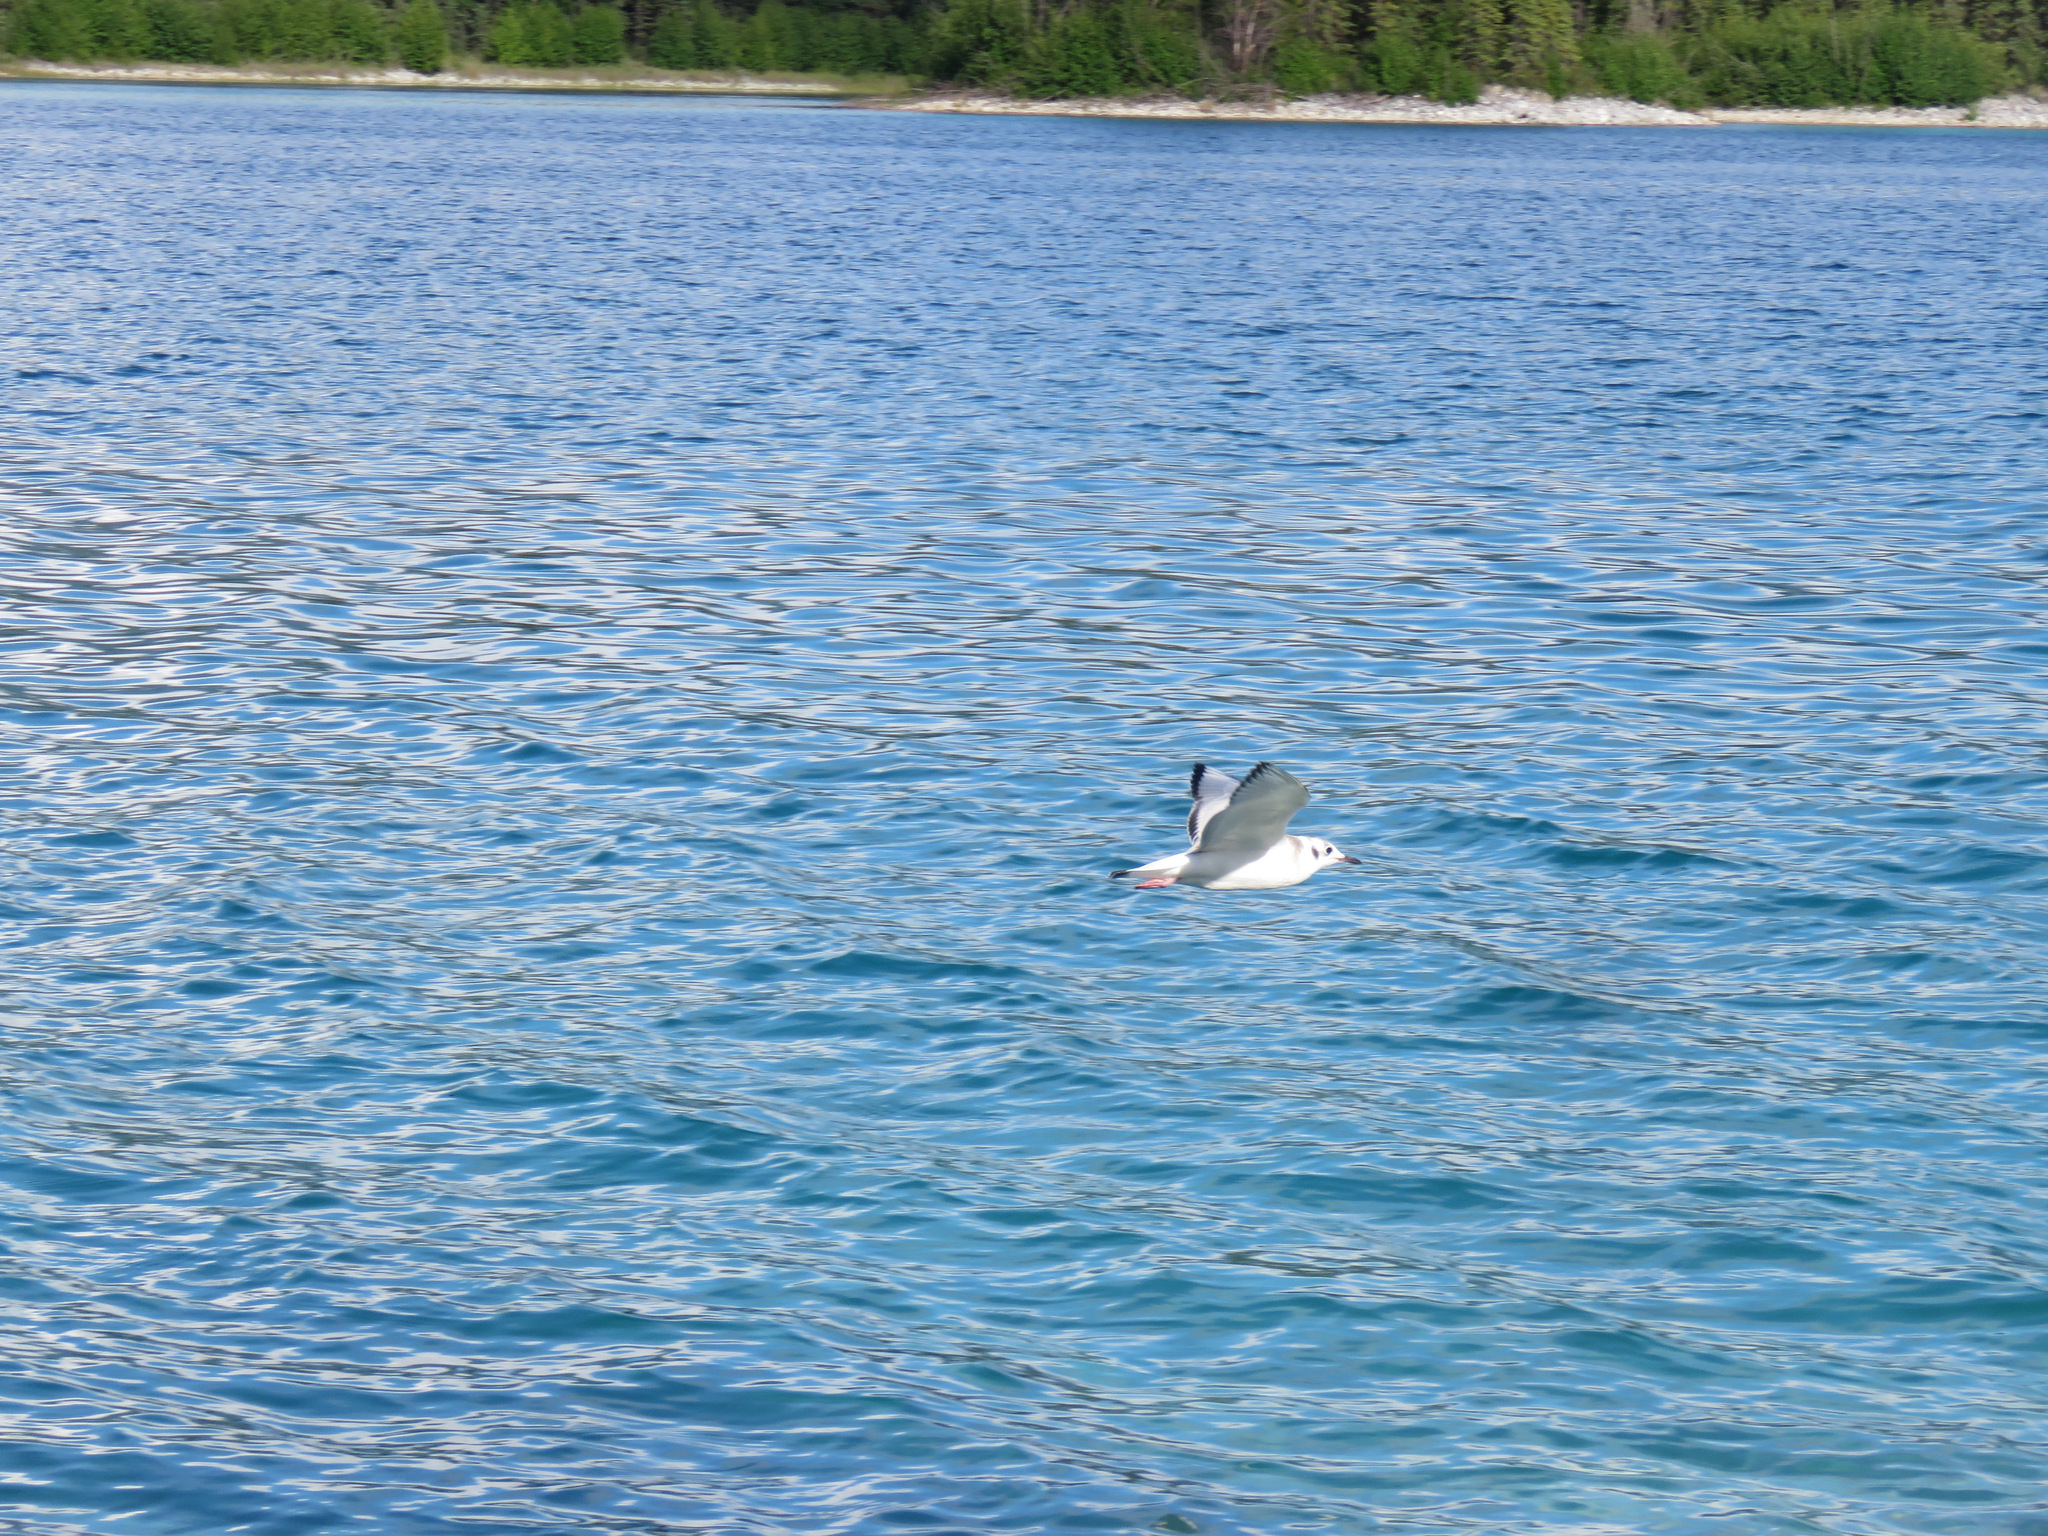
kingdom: Animalia
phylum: Chordata
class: Aves
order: Charadriiformes
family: Laridae
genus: Chroicocephalus
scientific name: Chroicocephalus philadelphia
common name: Bonaparte's gull
